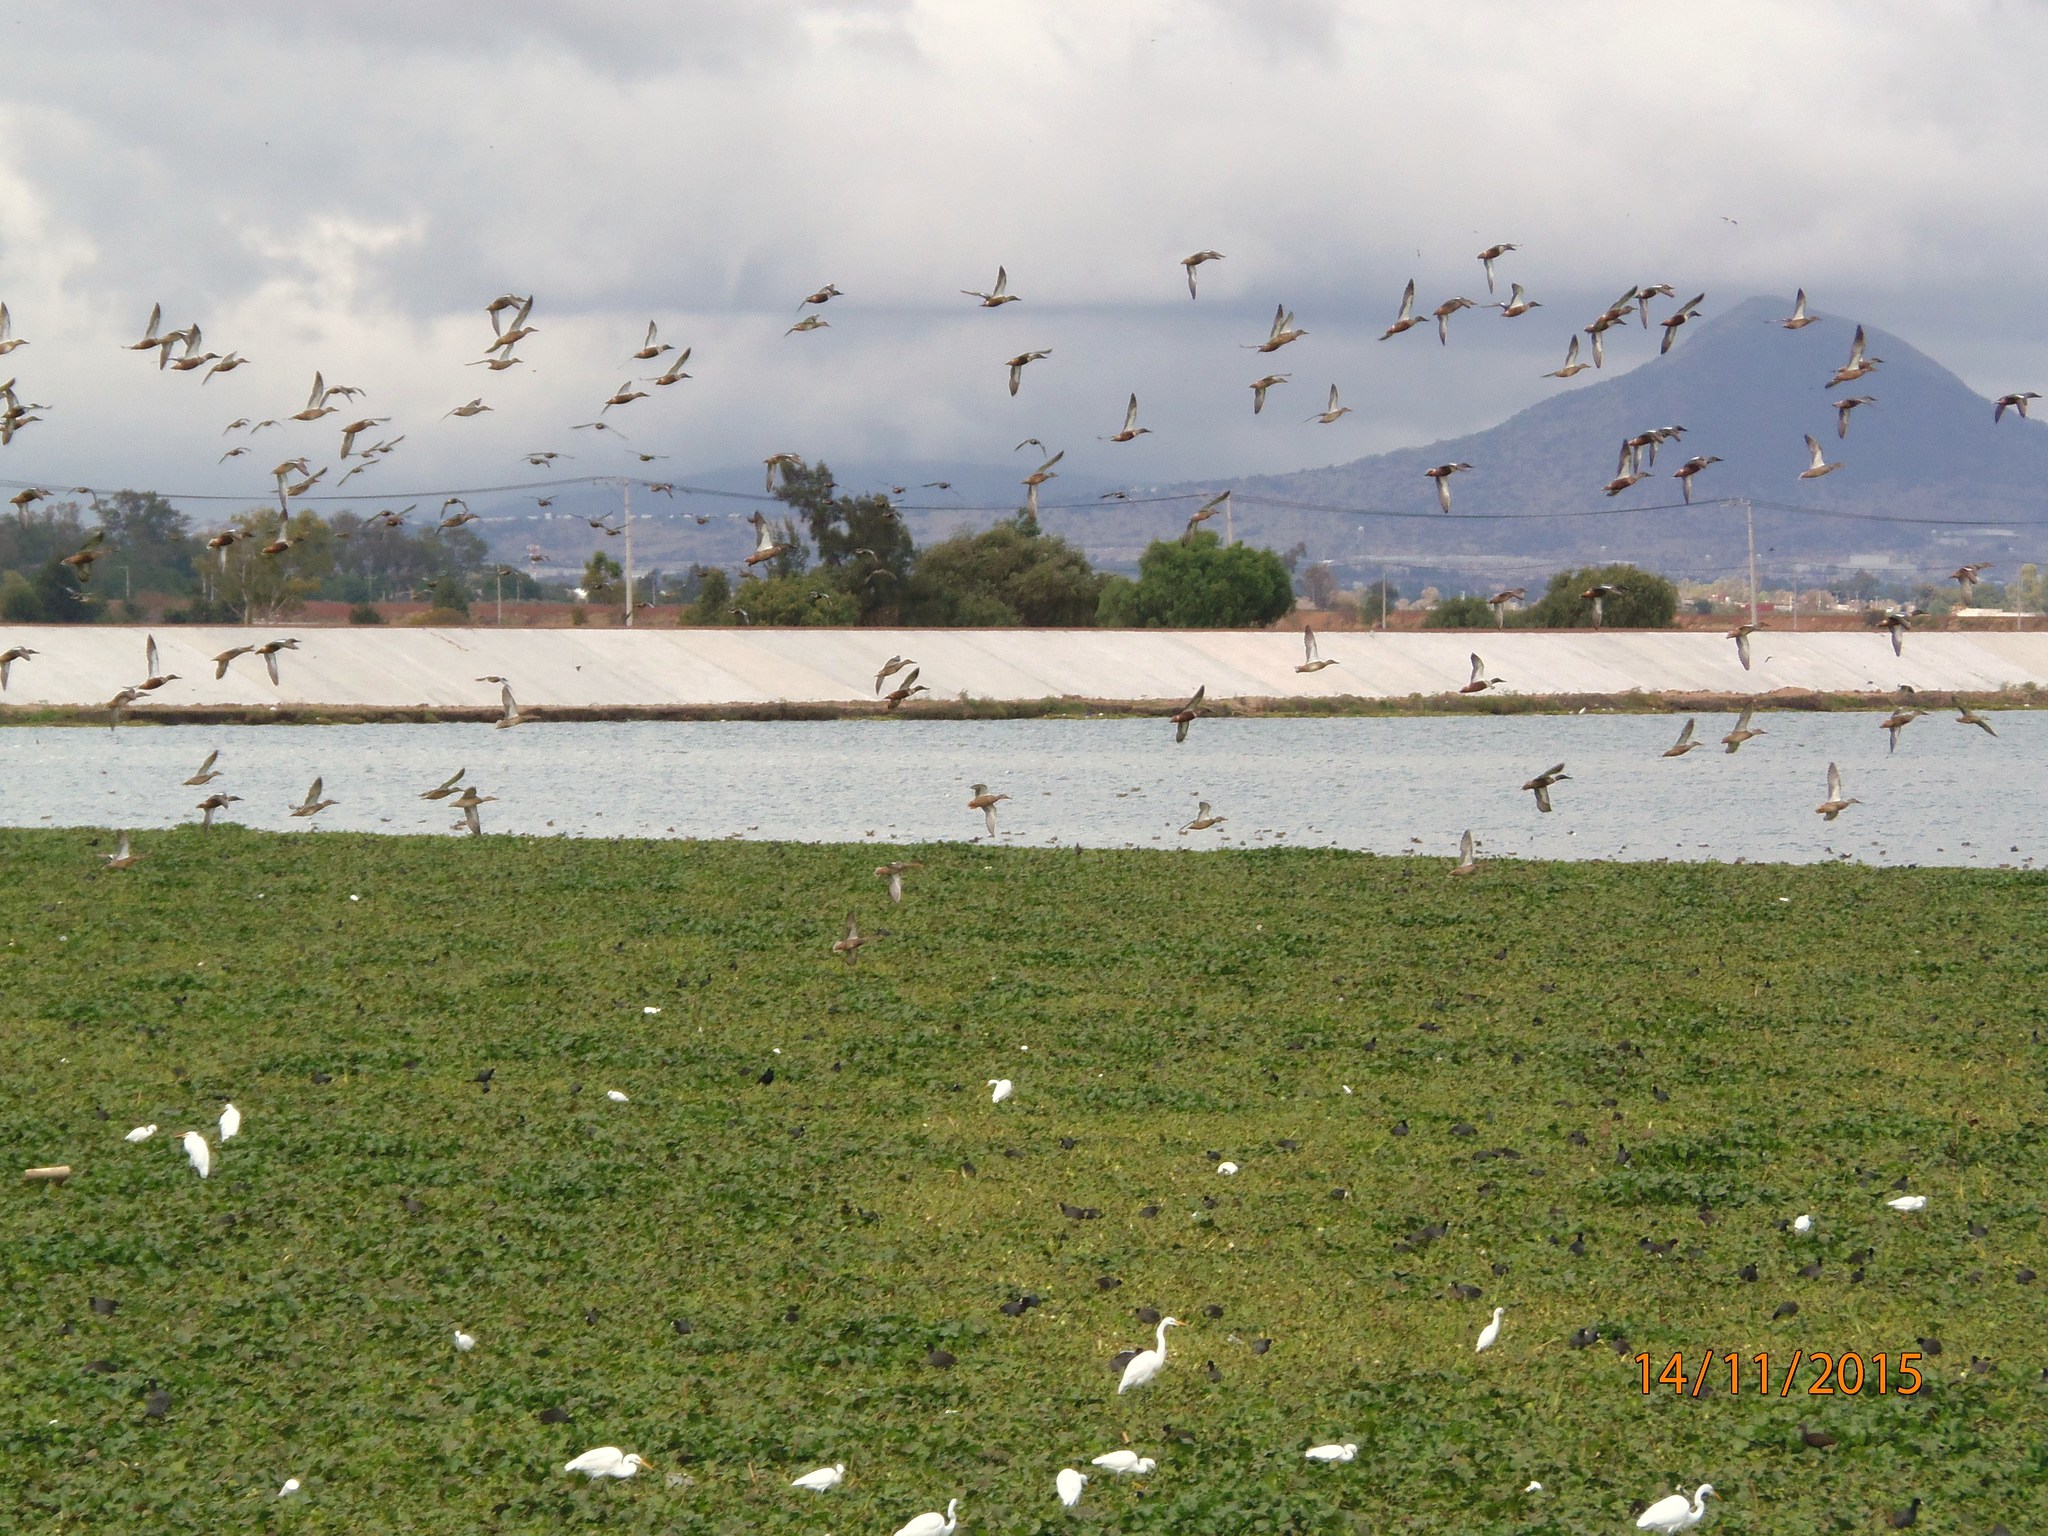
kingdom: Animalia
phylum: Chordata
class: Aves
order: Anseriformes
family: Anatidae
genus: Spatula
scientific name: Spatula clypeata
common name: Northern shoveler
